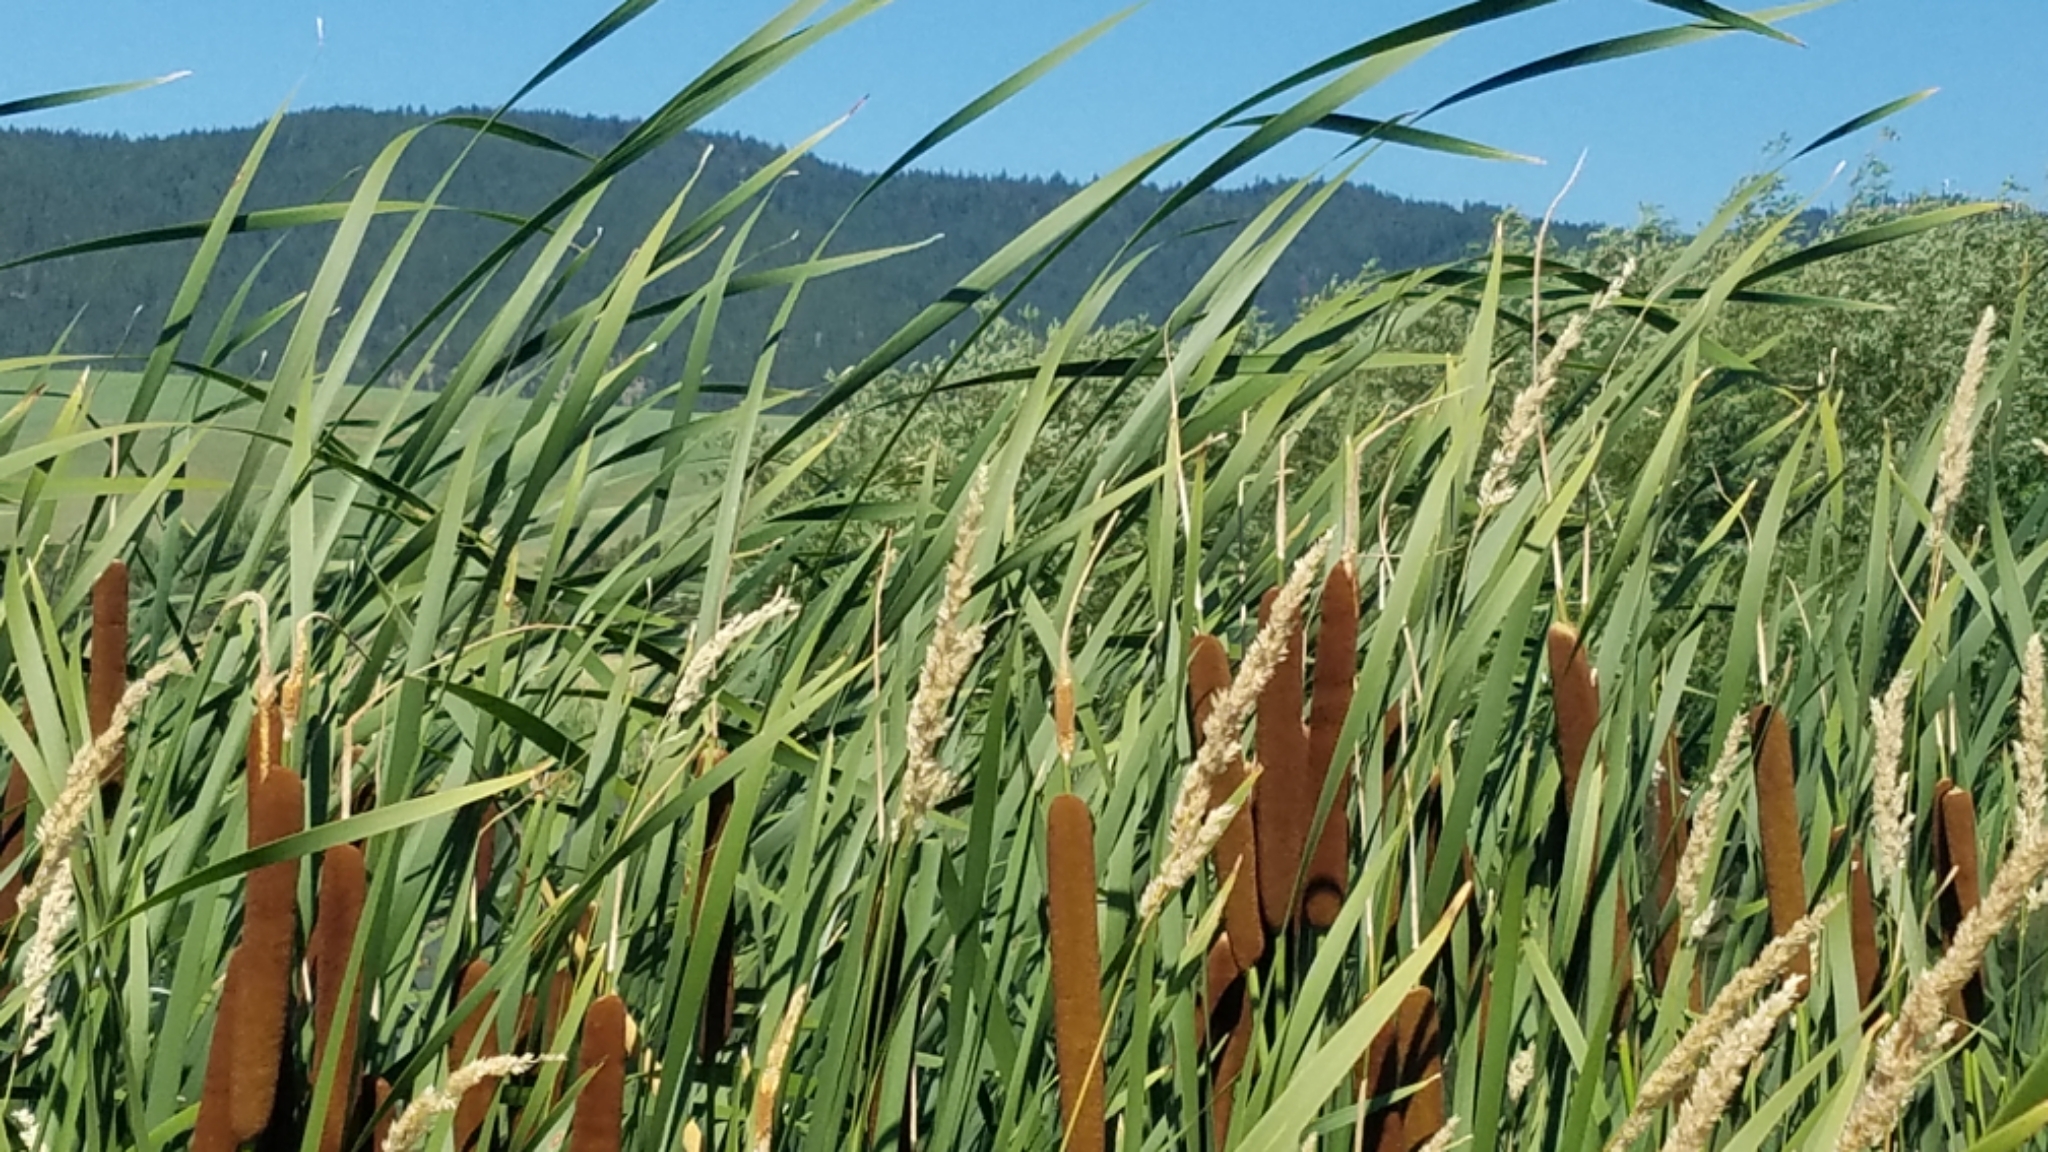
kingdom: Plantae
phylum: Tracheophyta
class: Liliopsida
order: Poales
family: Typhaceae
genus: Typha
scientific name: Typha latifolia
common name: Broadleaf cattail
